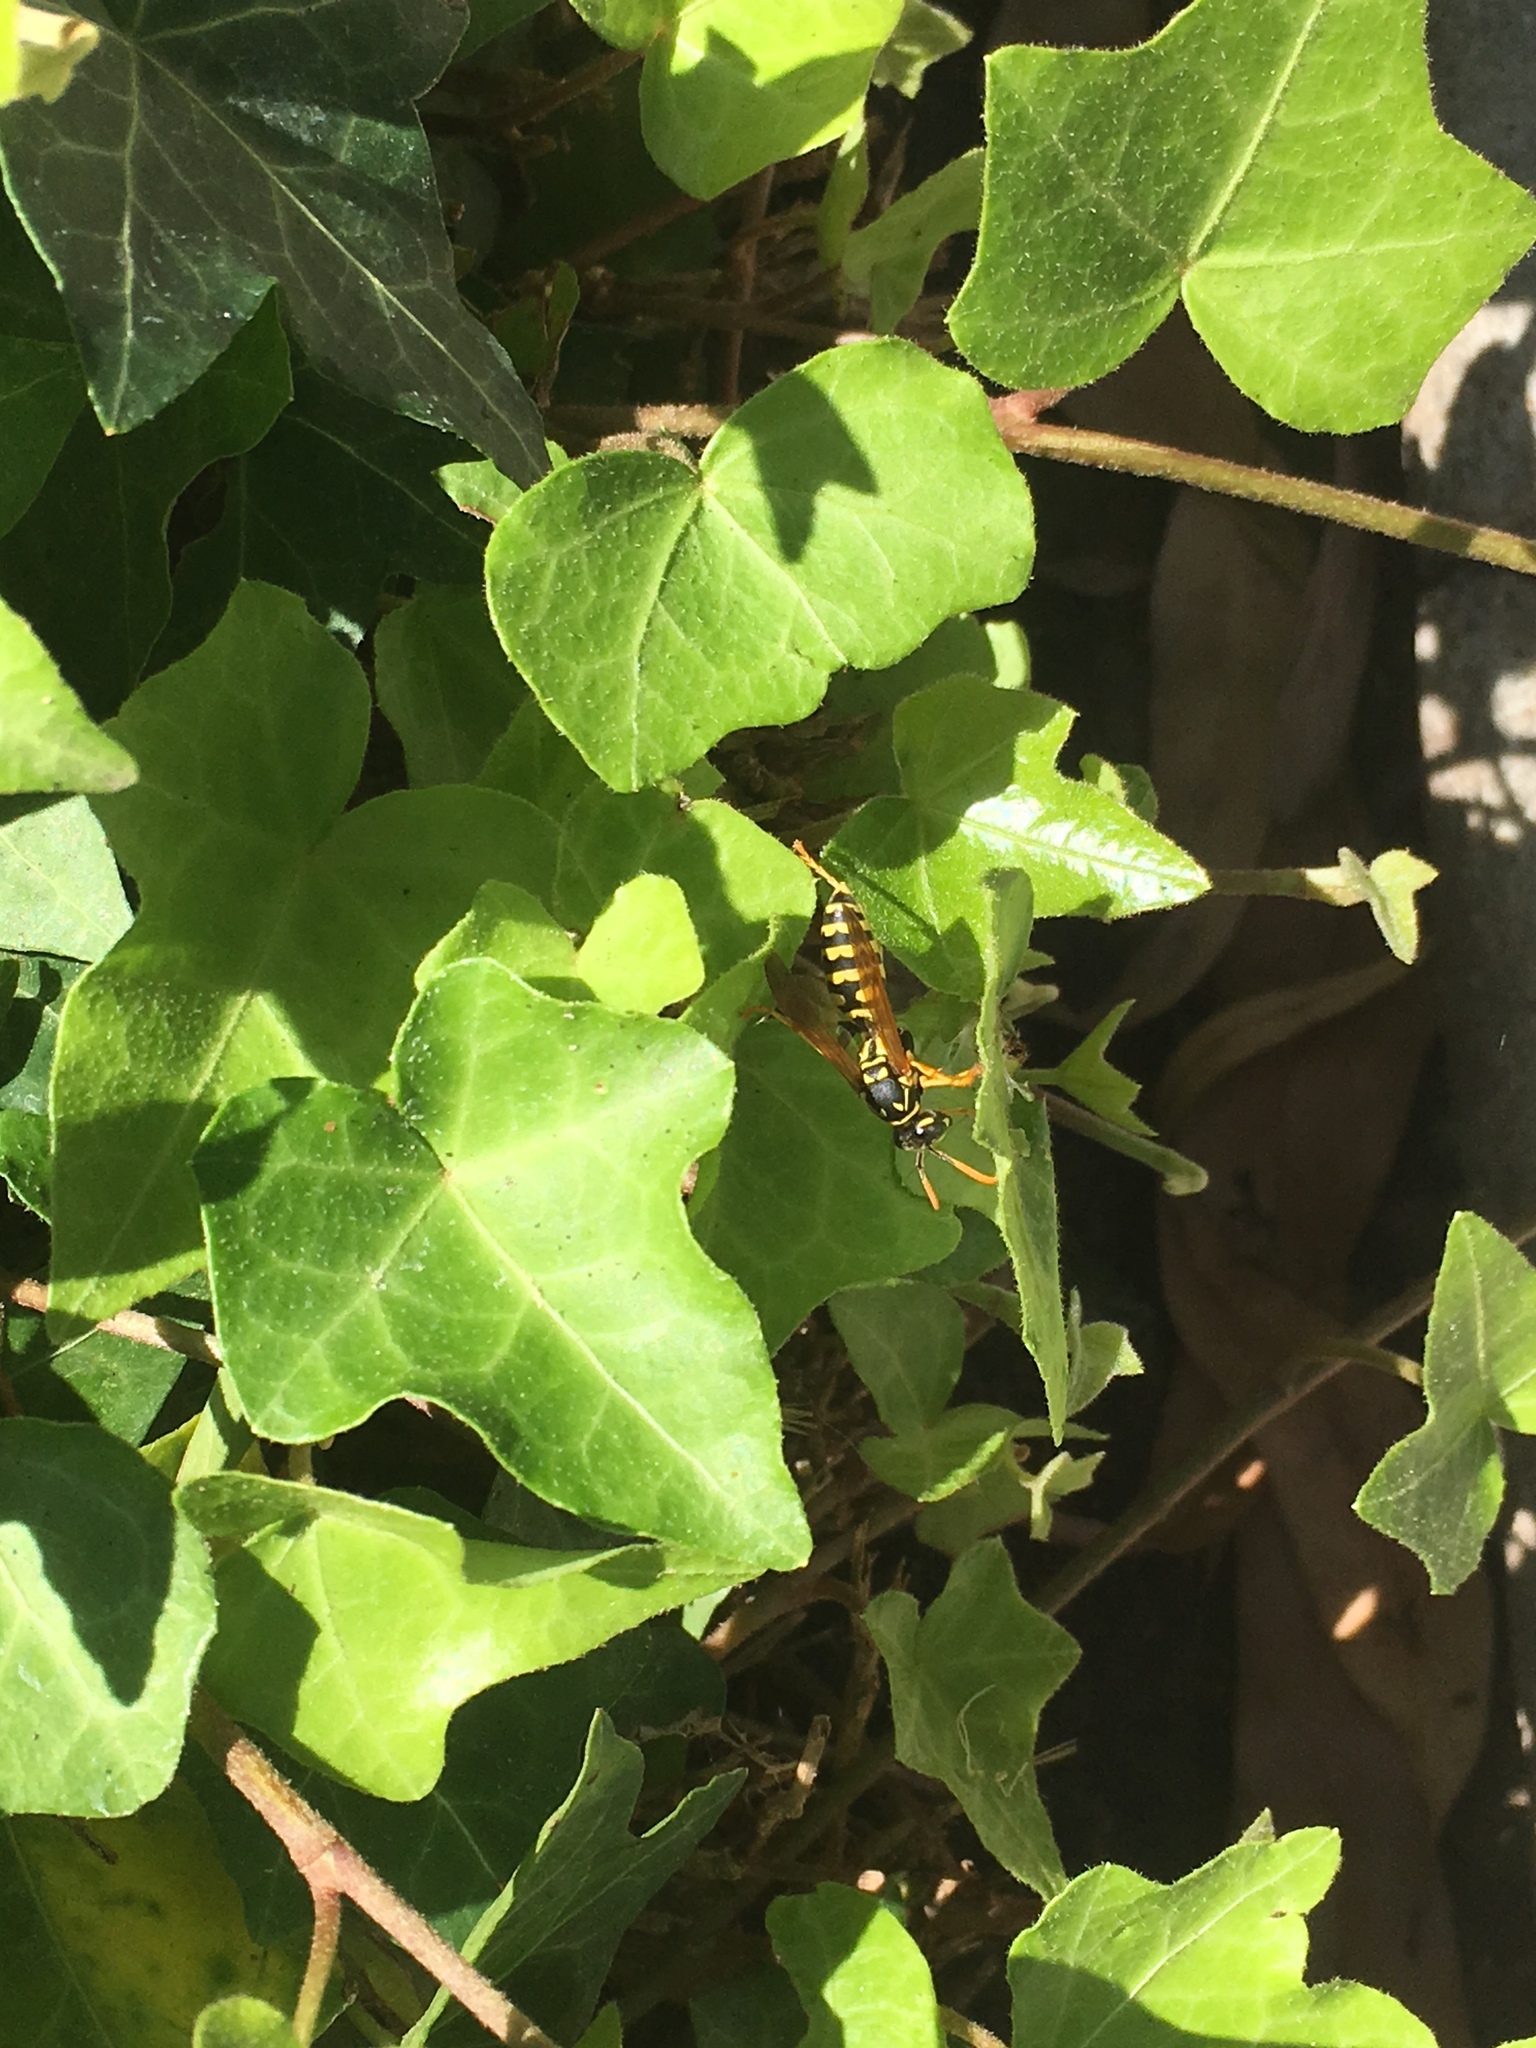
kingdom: Animalia
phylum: Arthropoda
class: Insecta
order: Hymenoptera
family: Eumenidae
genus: Polistes
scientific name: Polistes dominula
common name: Paper wasp
